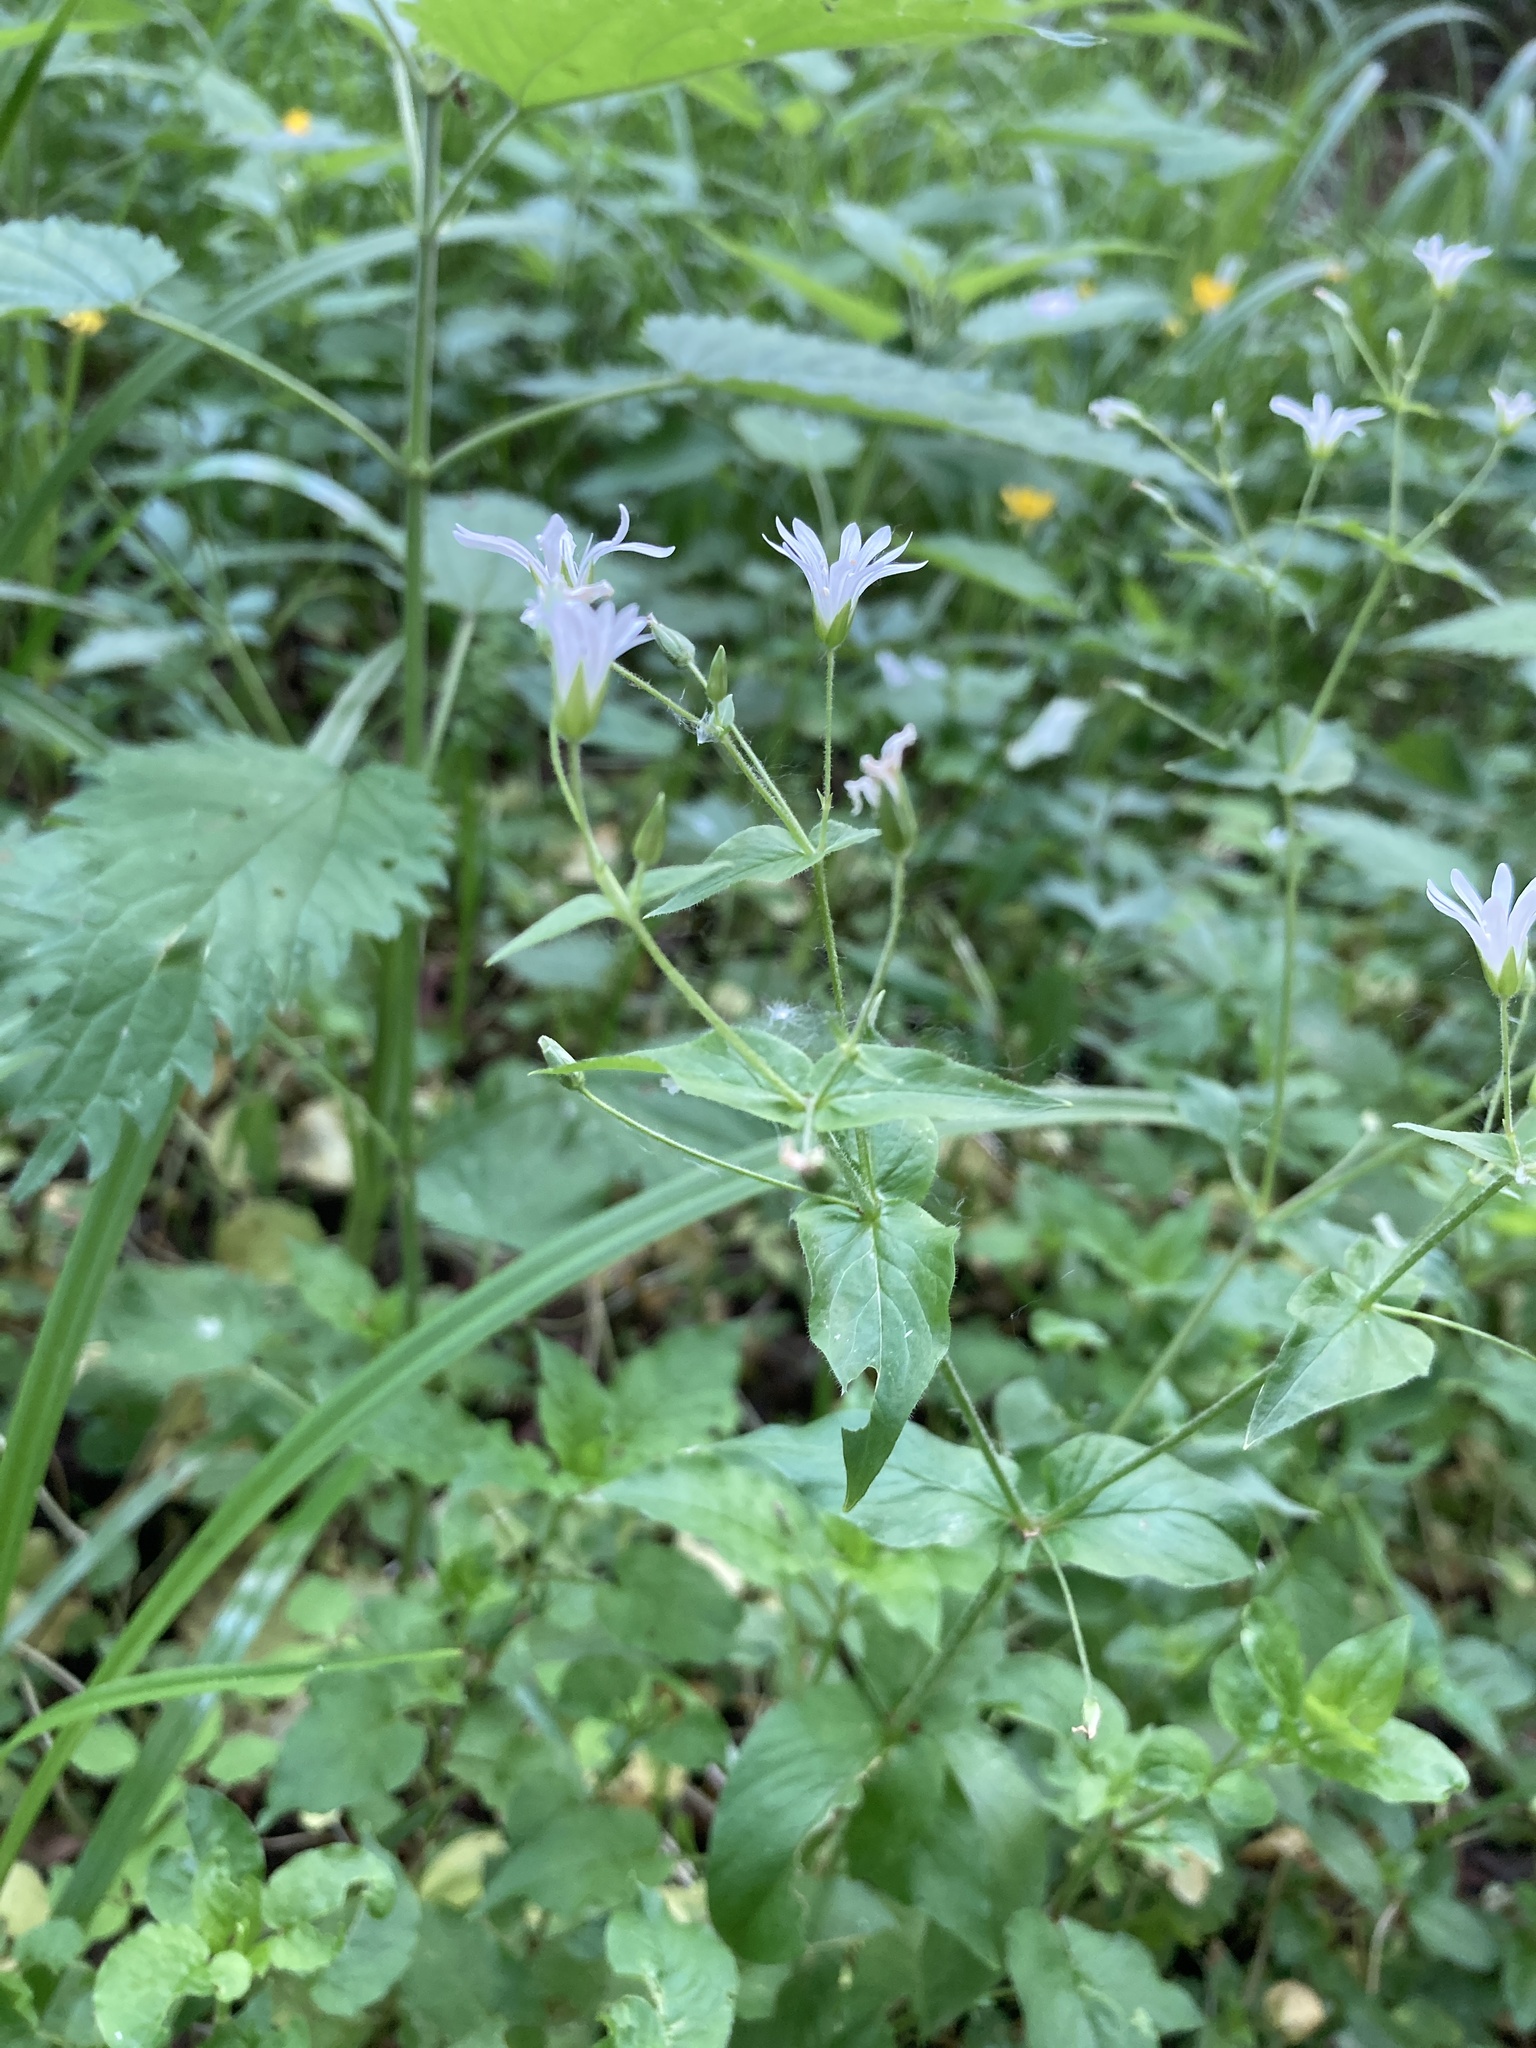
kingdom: Plantae
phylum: Tracheophyta
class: Magnoliopsida
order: Caryophyllales
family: Caryophyllaceae
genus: Stellaria
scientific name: Stellaria nemorum
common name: Wood stitchwort
